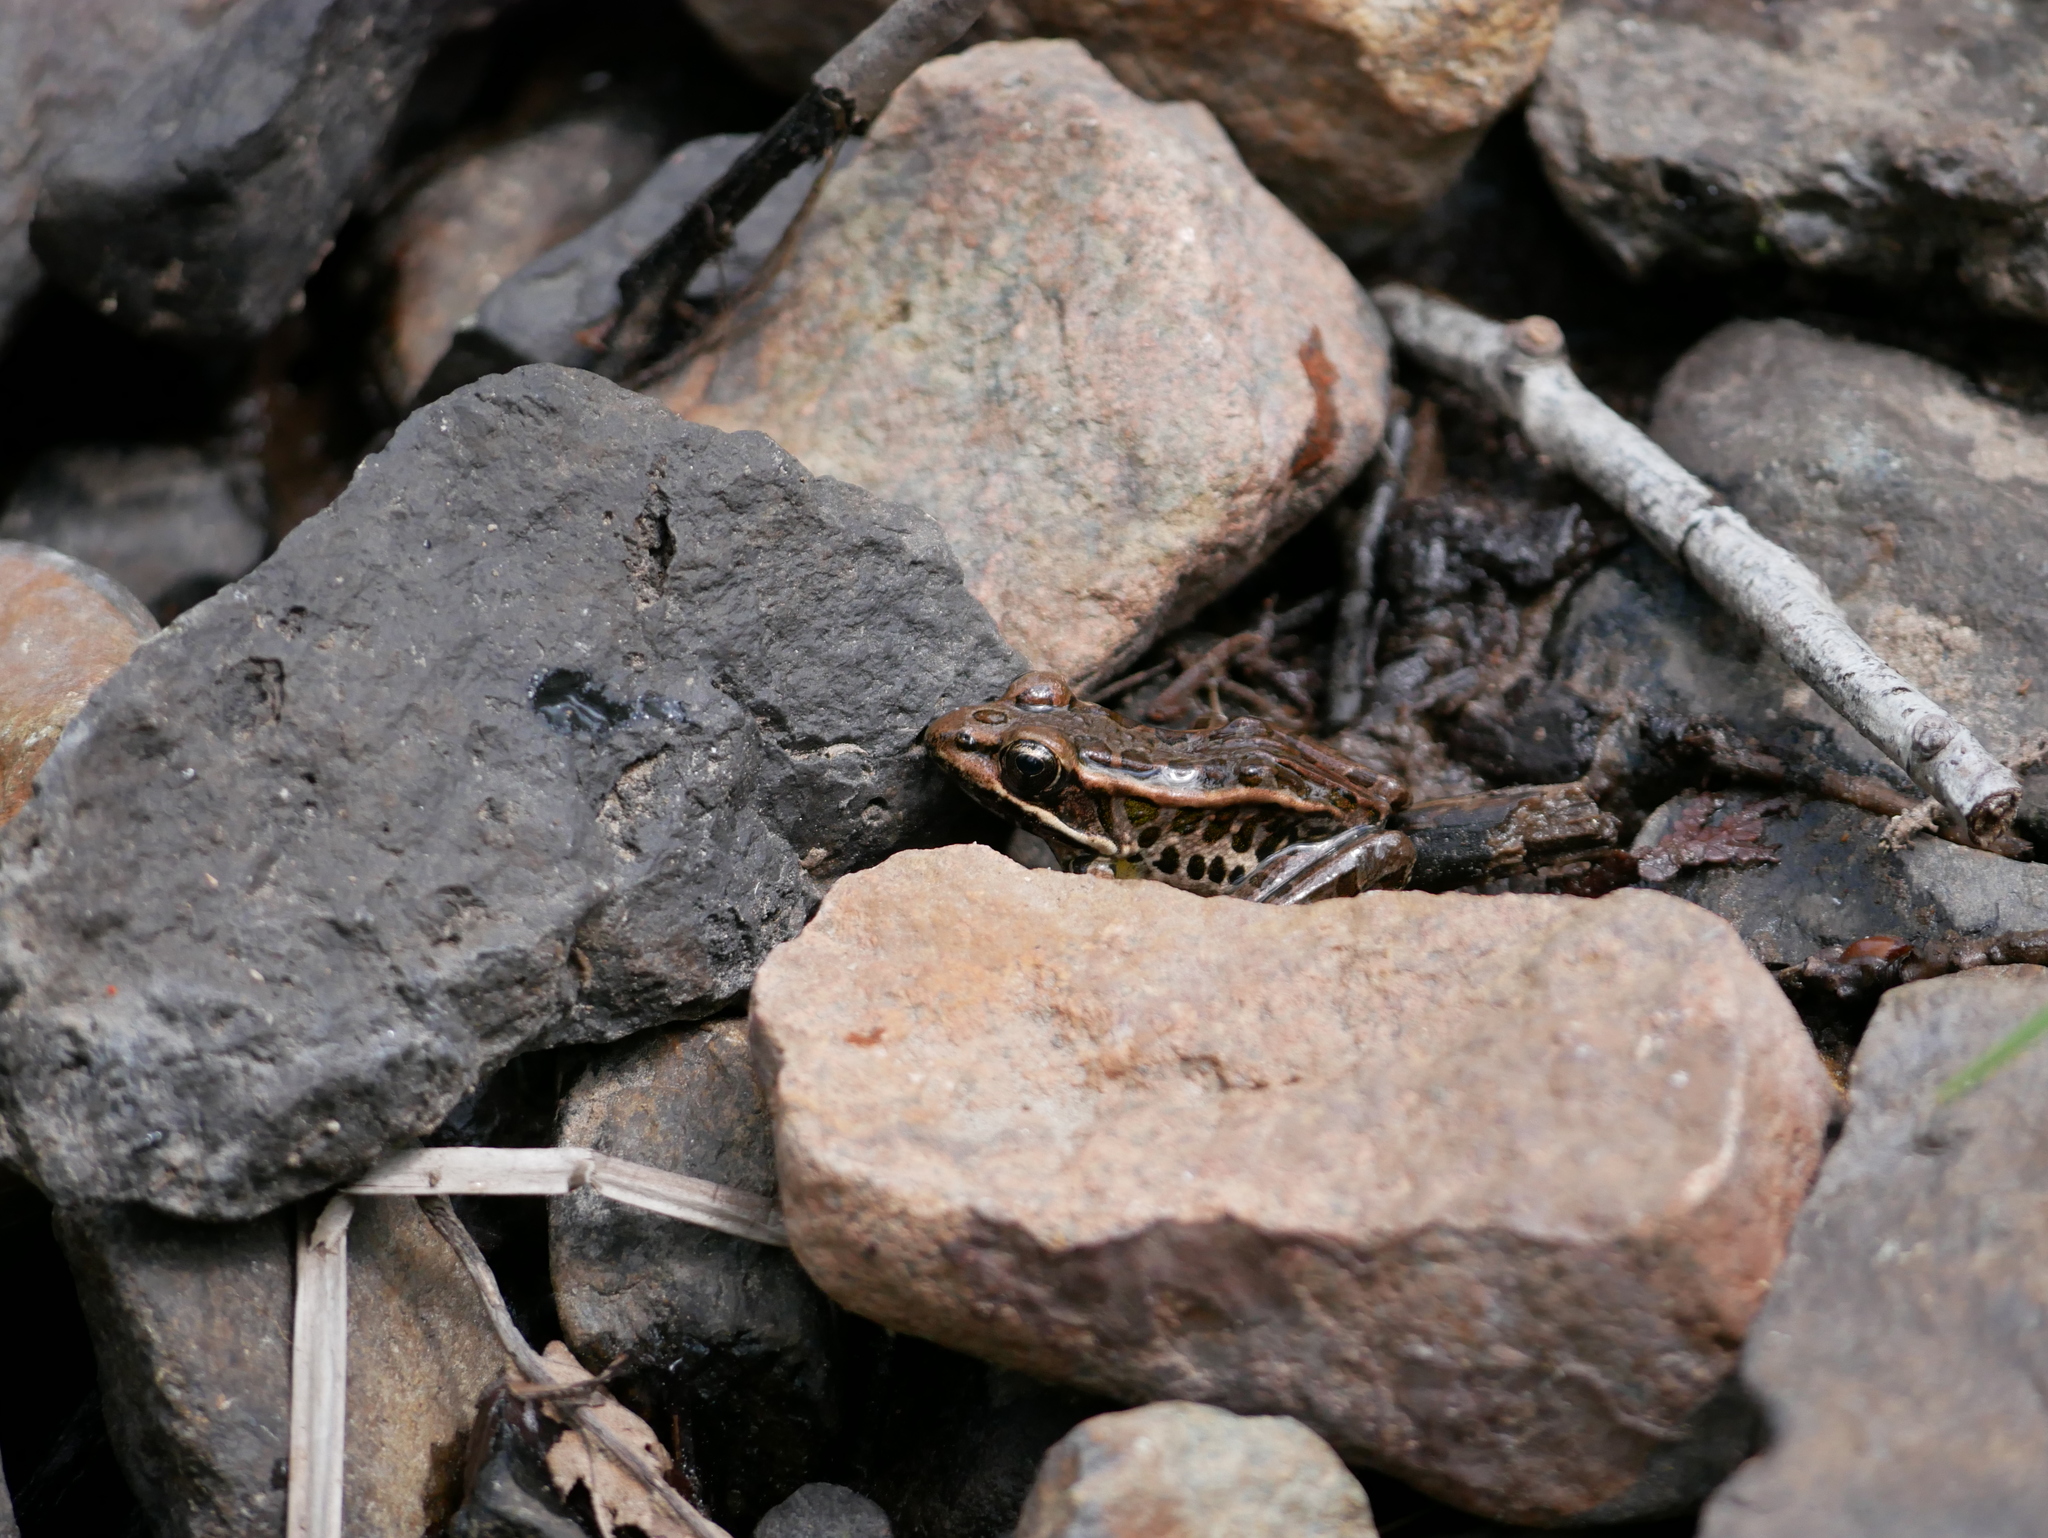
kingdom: Animalia
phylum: Chordata
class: Amphibia
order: Anura
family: Ranidae
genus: Lithobates
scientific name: Lithobates palustris
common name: Pickerel frog
